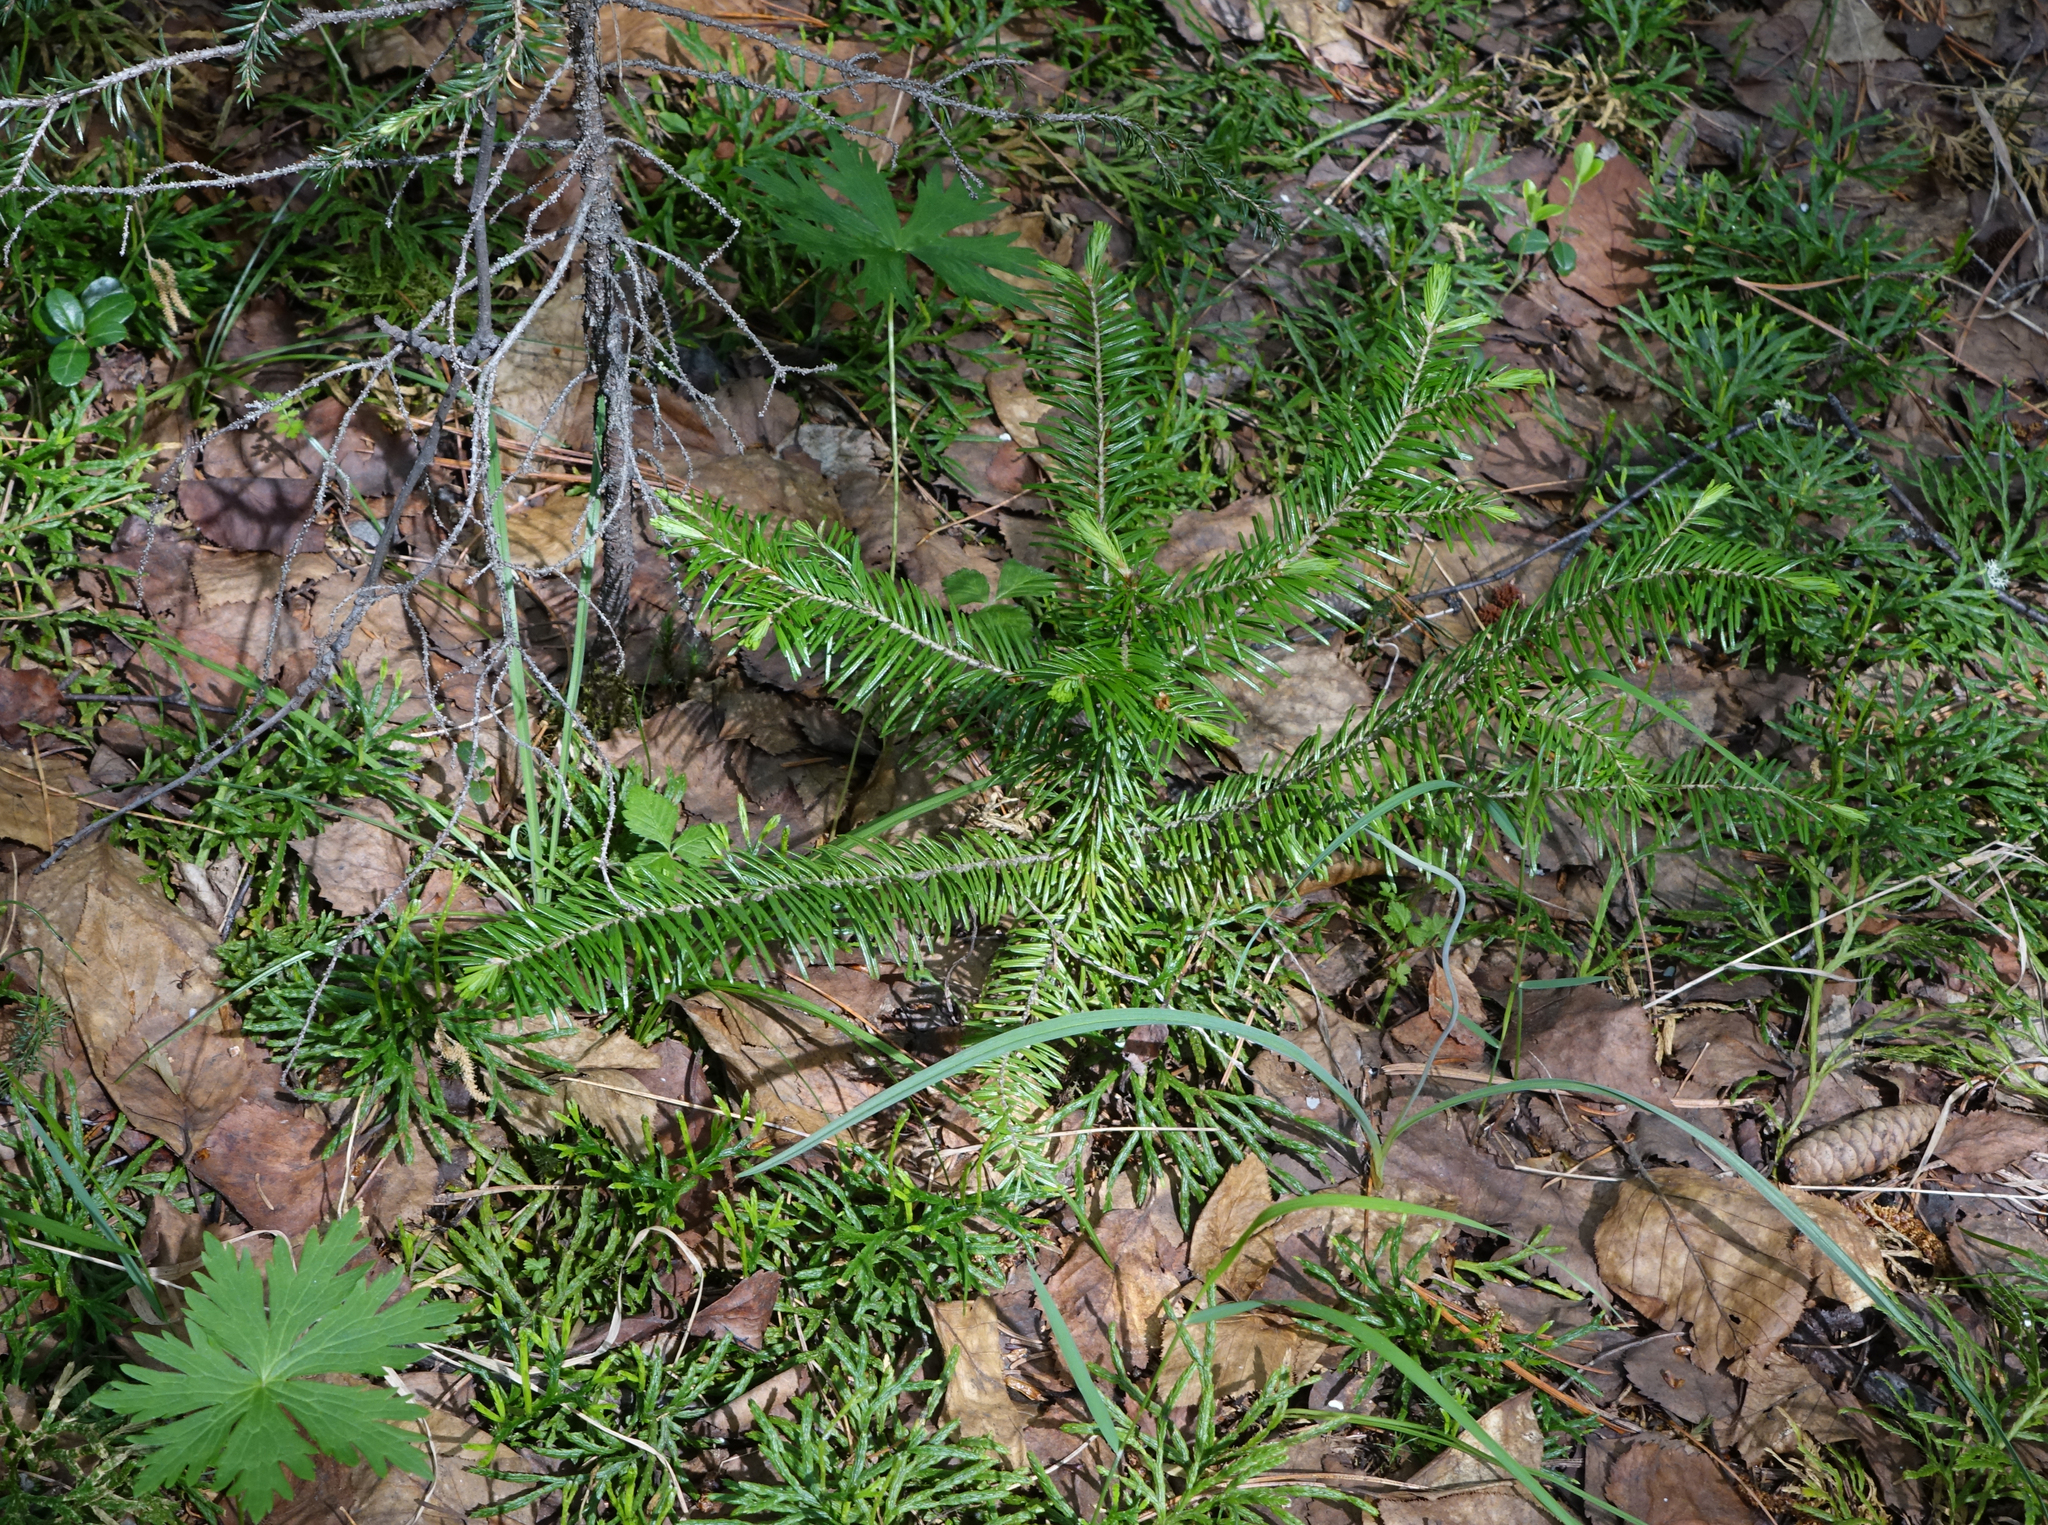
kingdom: Plantae
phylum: Tracheophyta
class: Pinopsida
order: Pinales
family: Pinaceae
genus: Abies
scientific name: Abies sibirica
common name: Siberian fir
